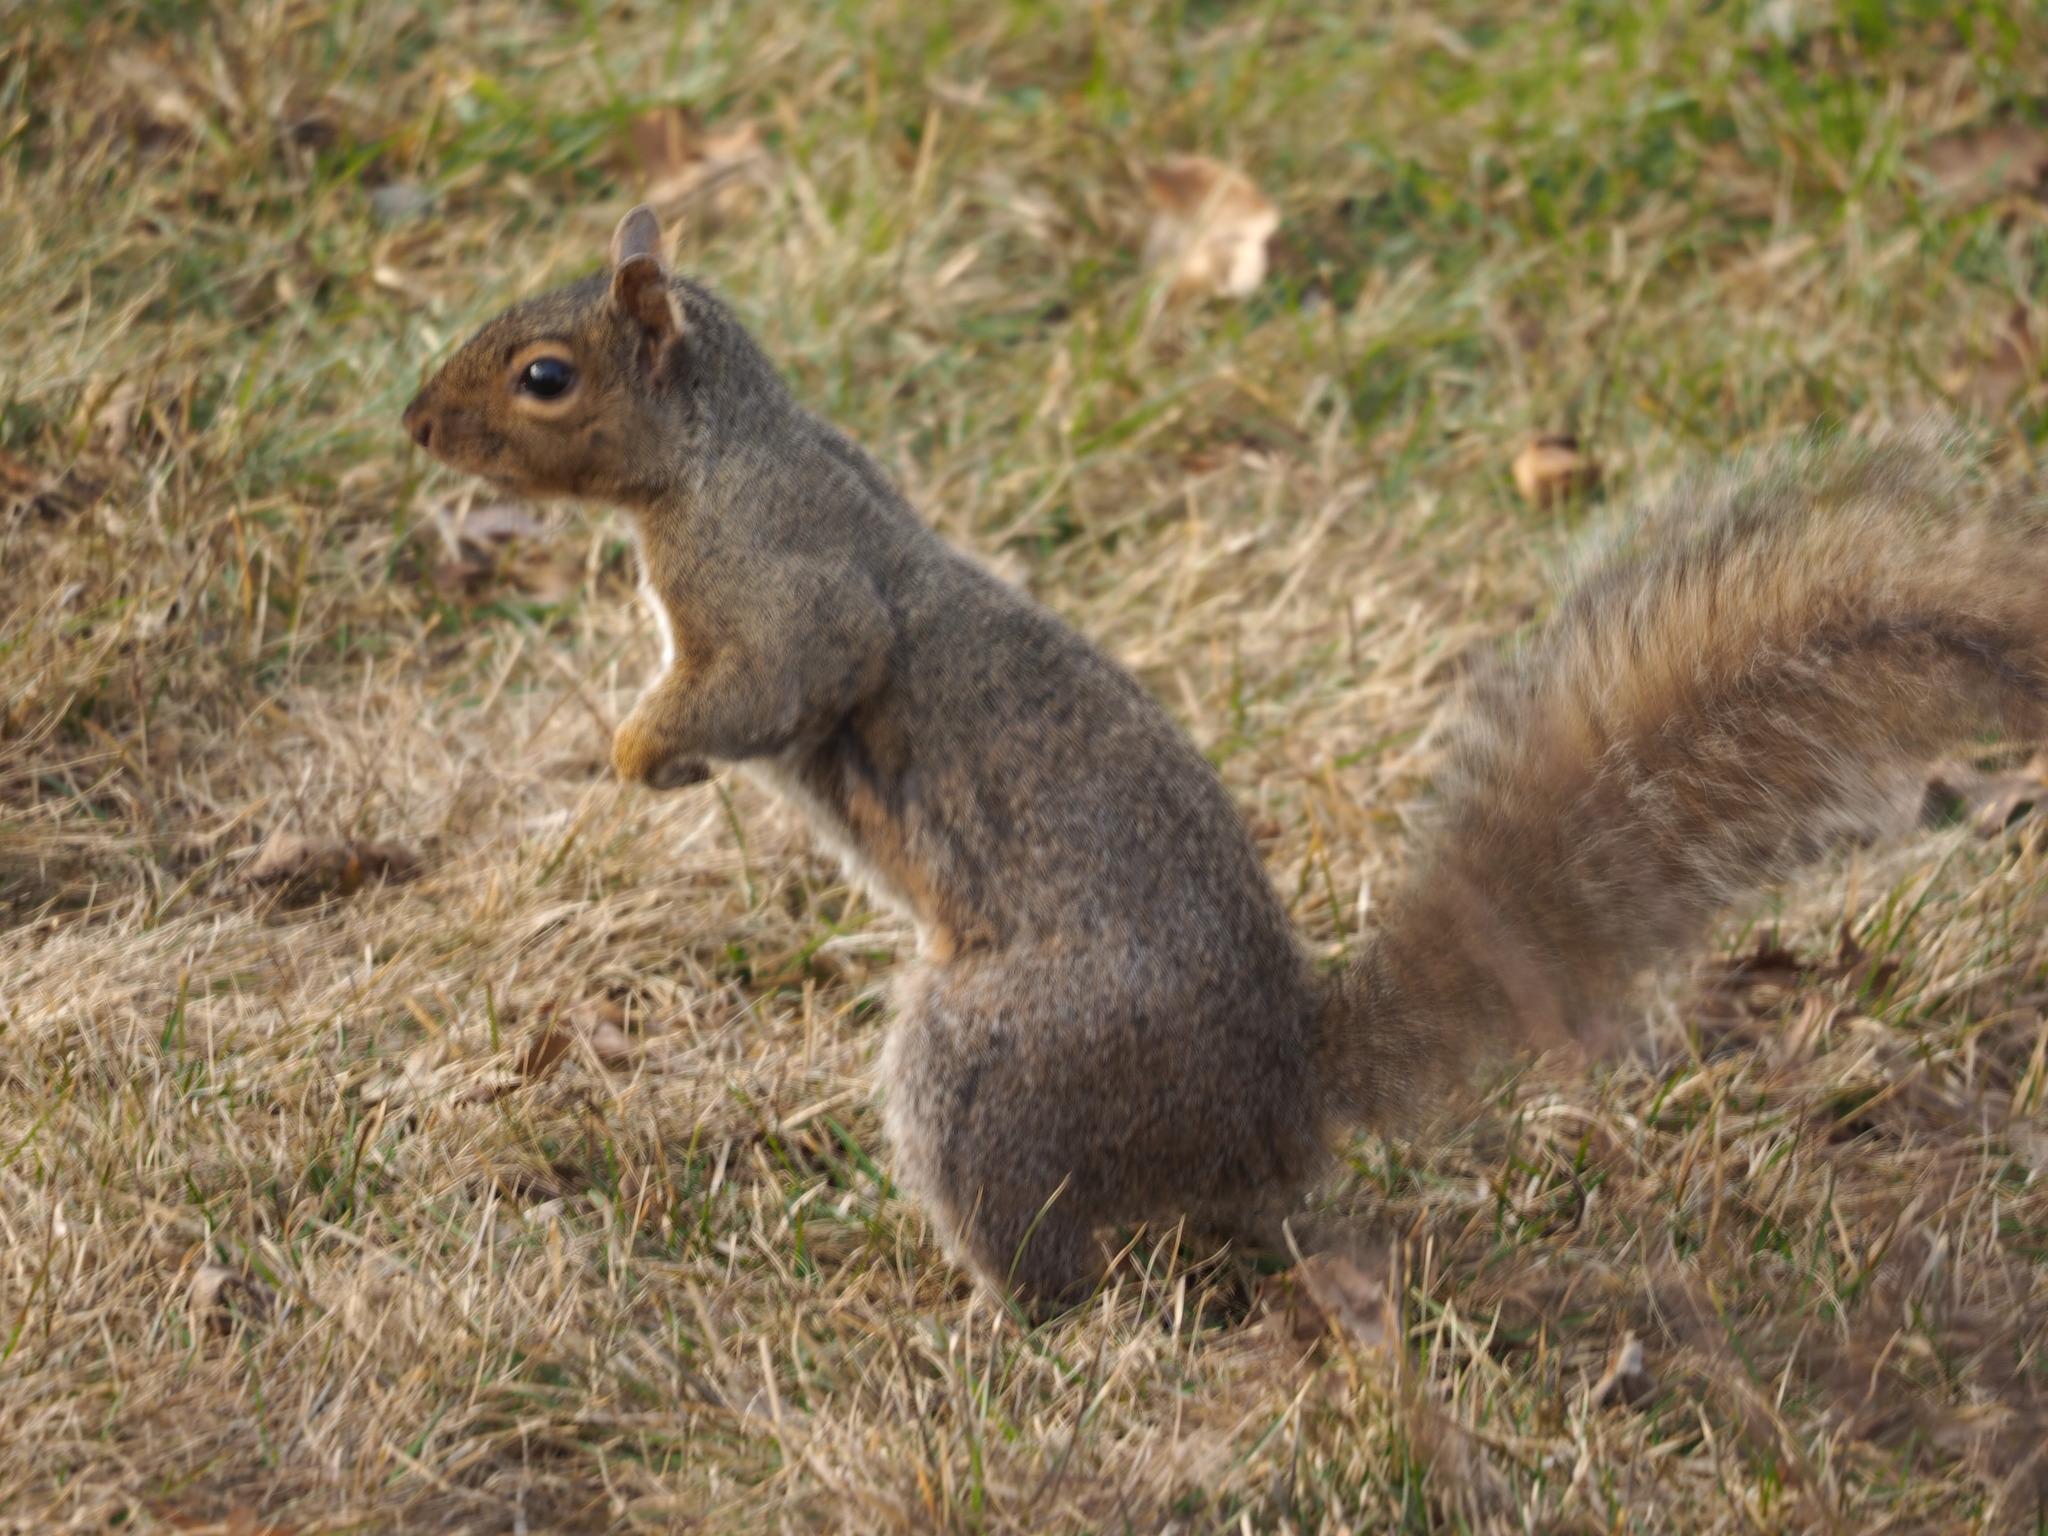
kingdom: Animalia
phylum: Chordata
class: Mammalia
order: Rodentia
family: Sciuridae
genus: Sciurus
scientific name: Sciurus carolinensis
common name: Eastern gray squirrel
